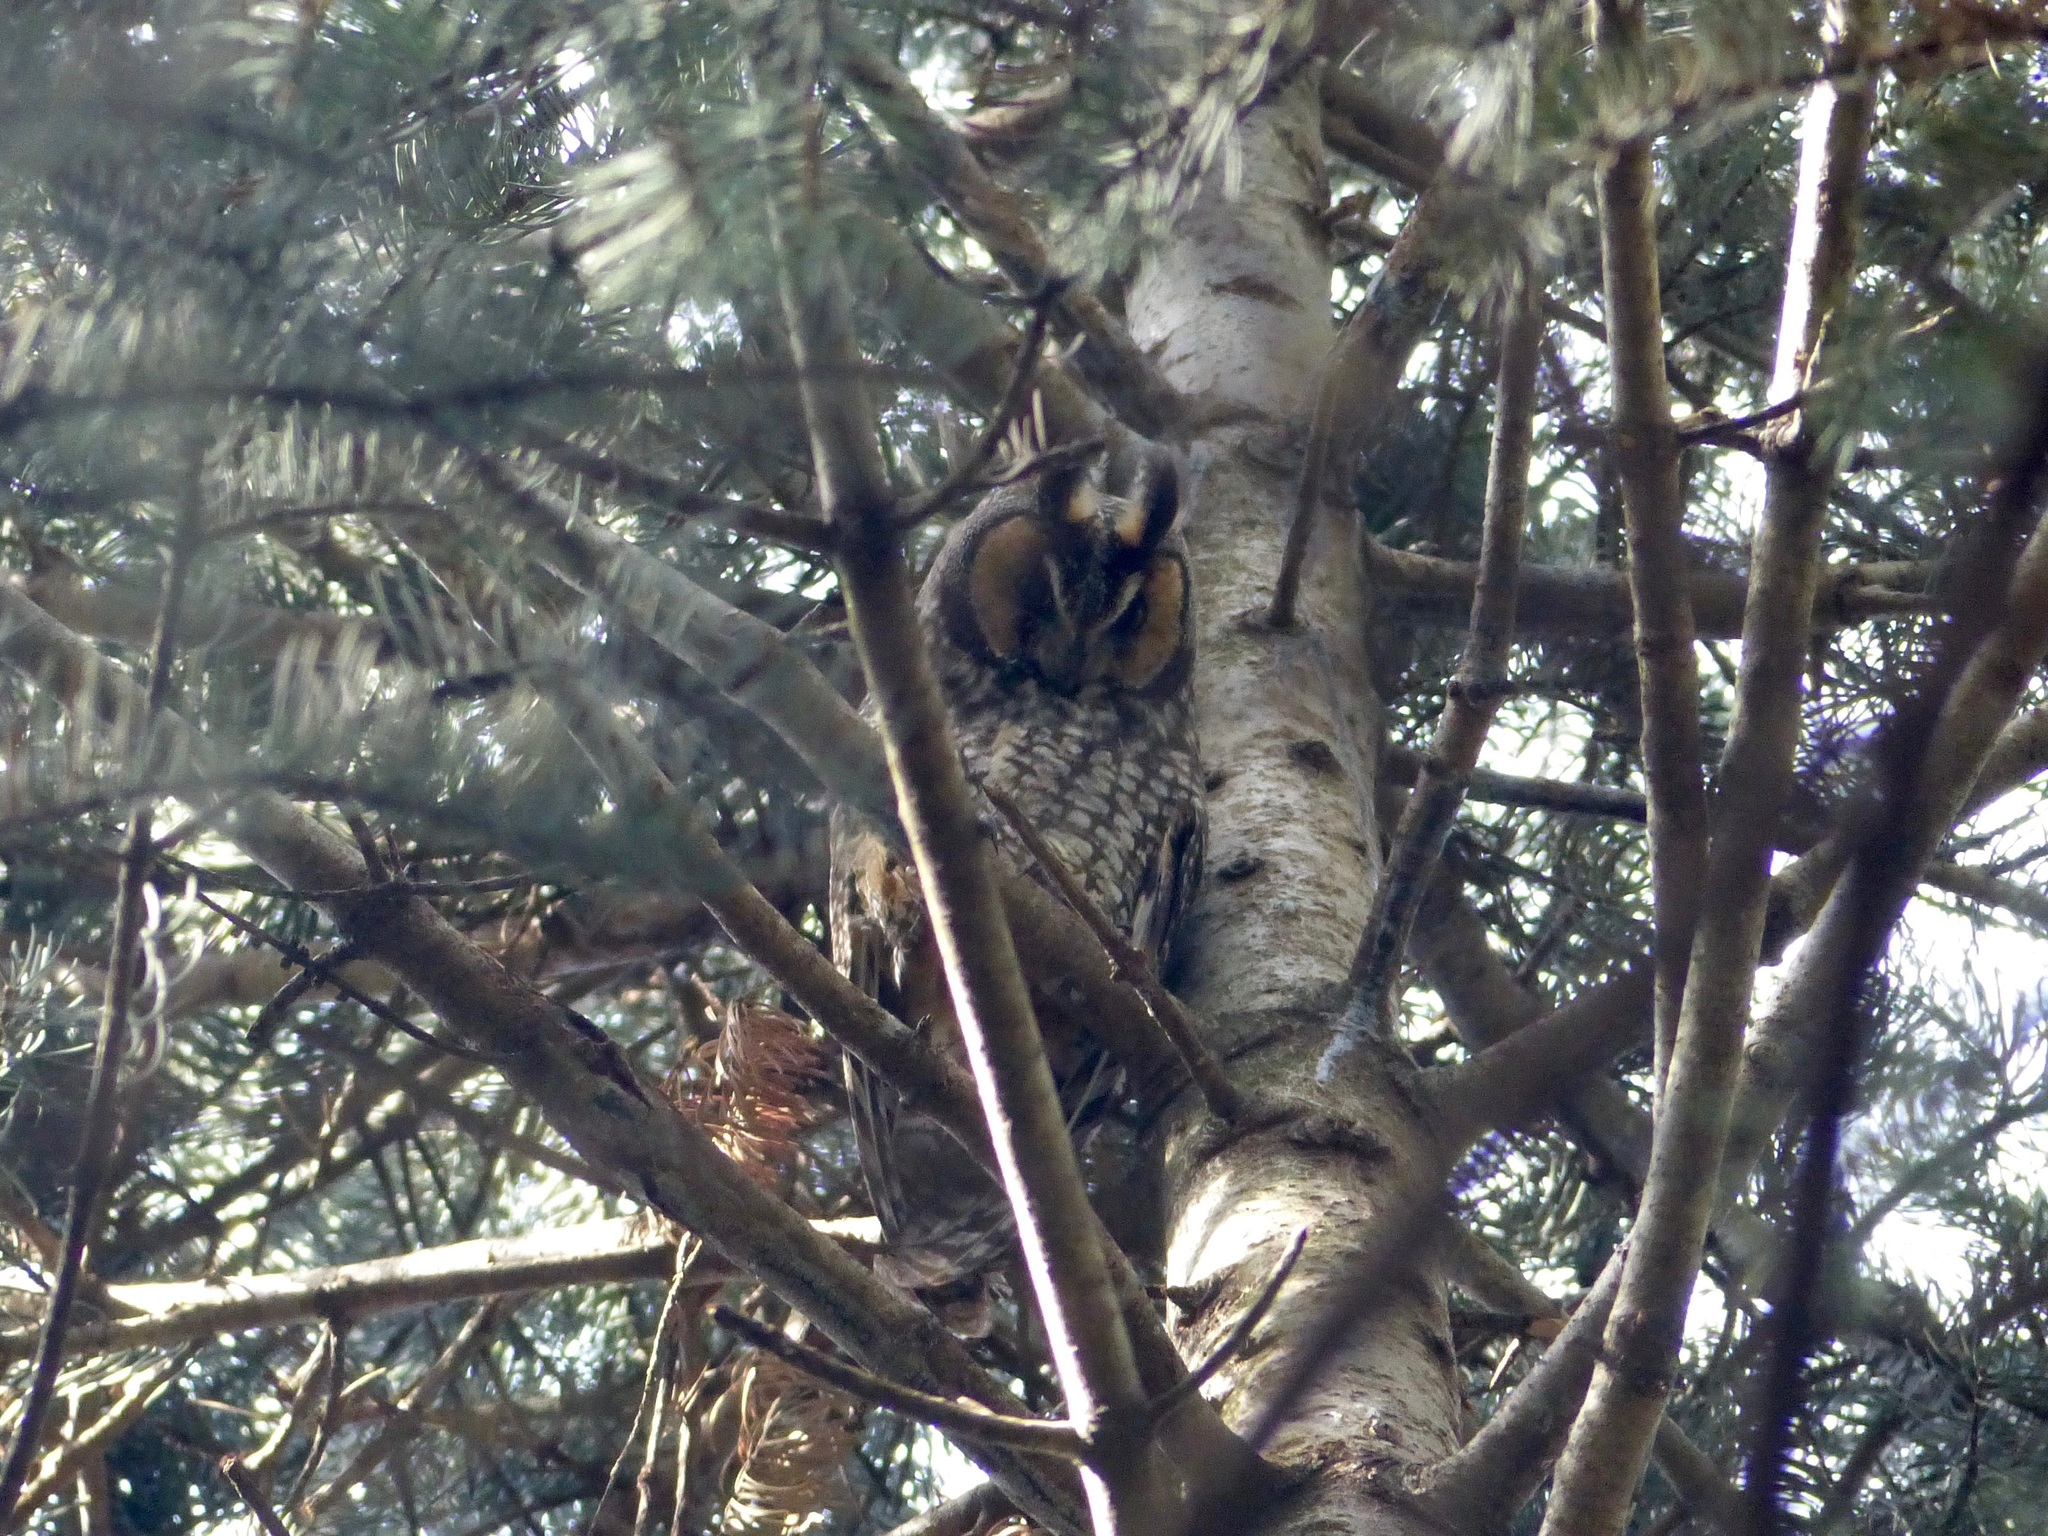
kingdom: Animalia
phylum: Chordata
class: Aves
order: Strigiformes
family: Strigidae
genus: Asio
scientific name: Asio otus
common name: Long-eared owl
